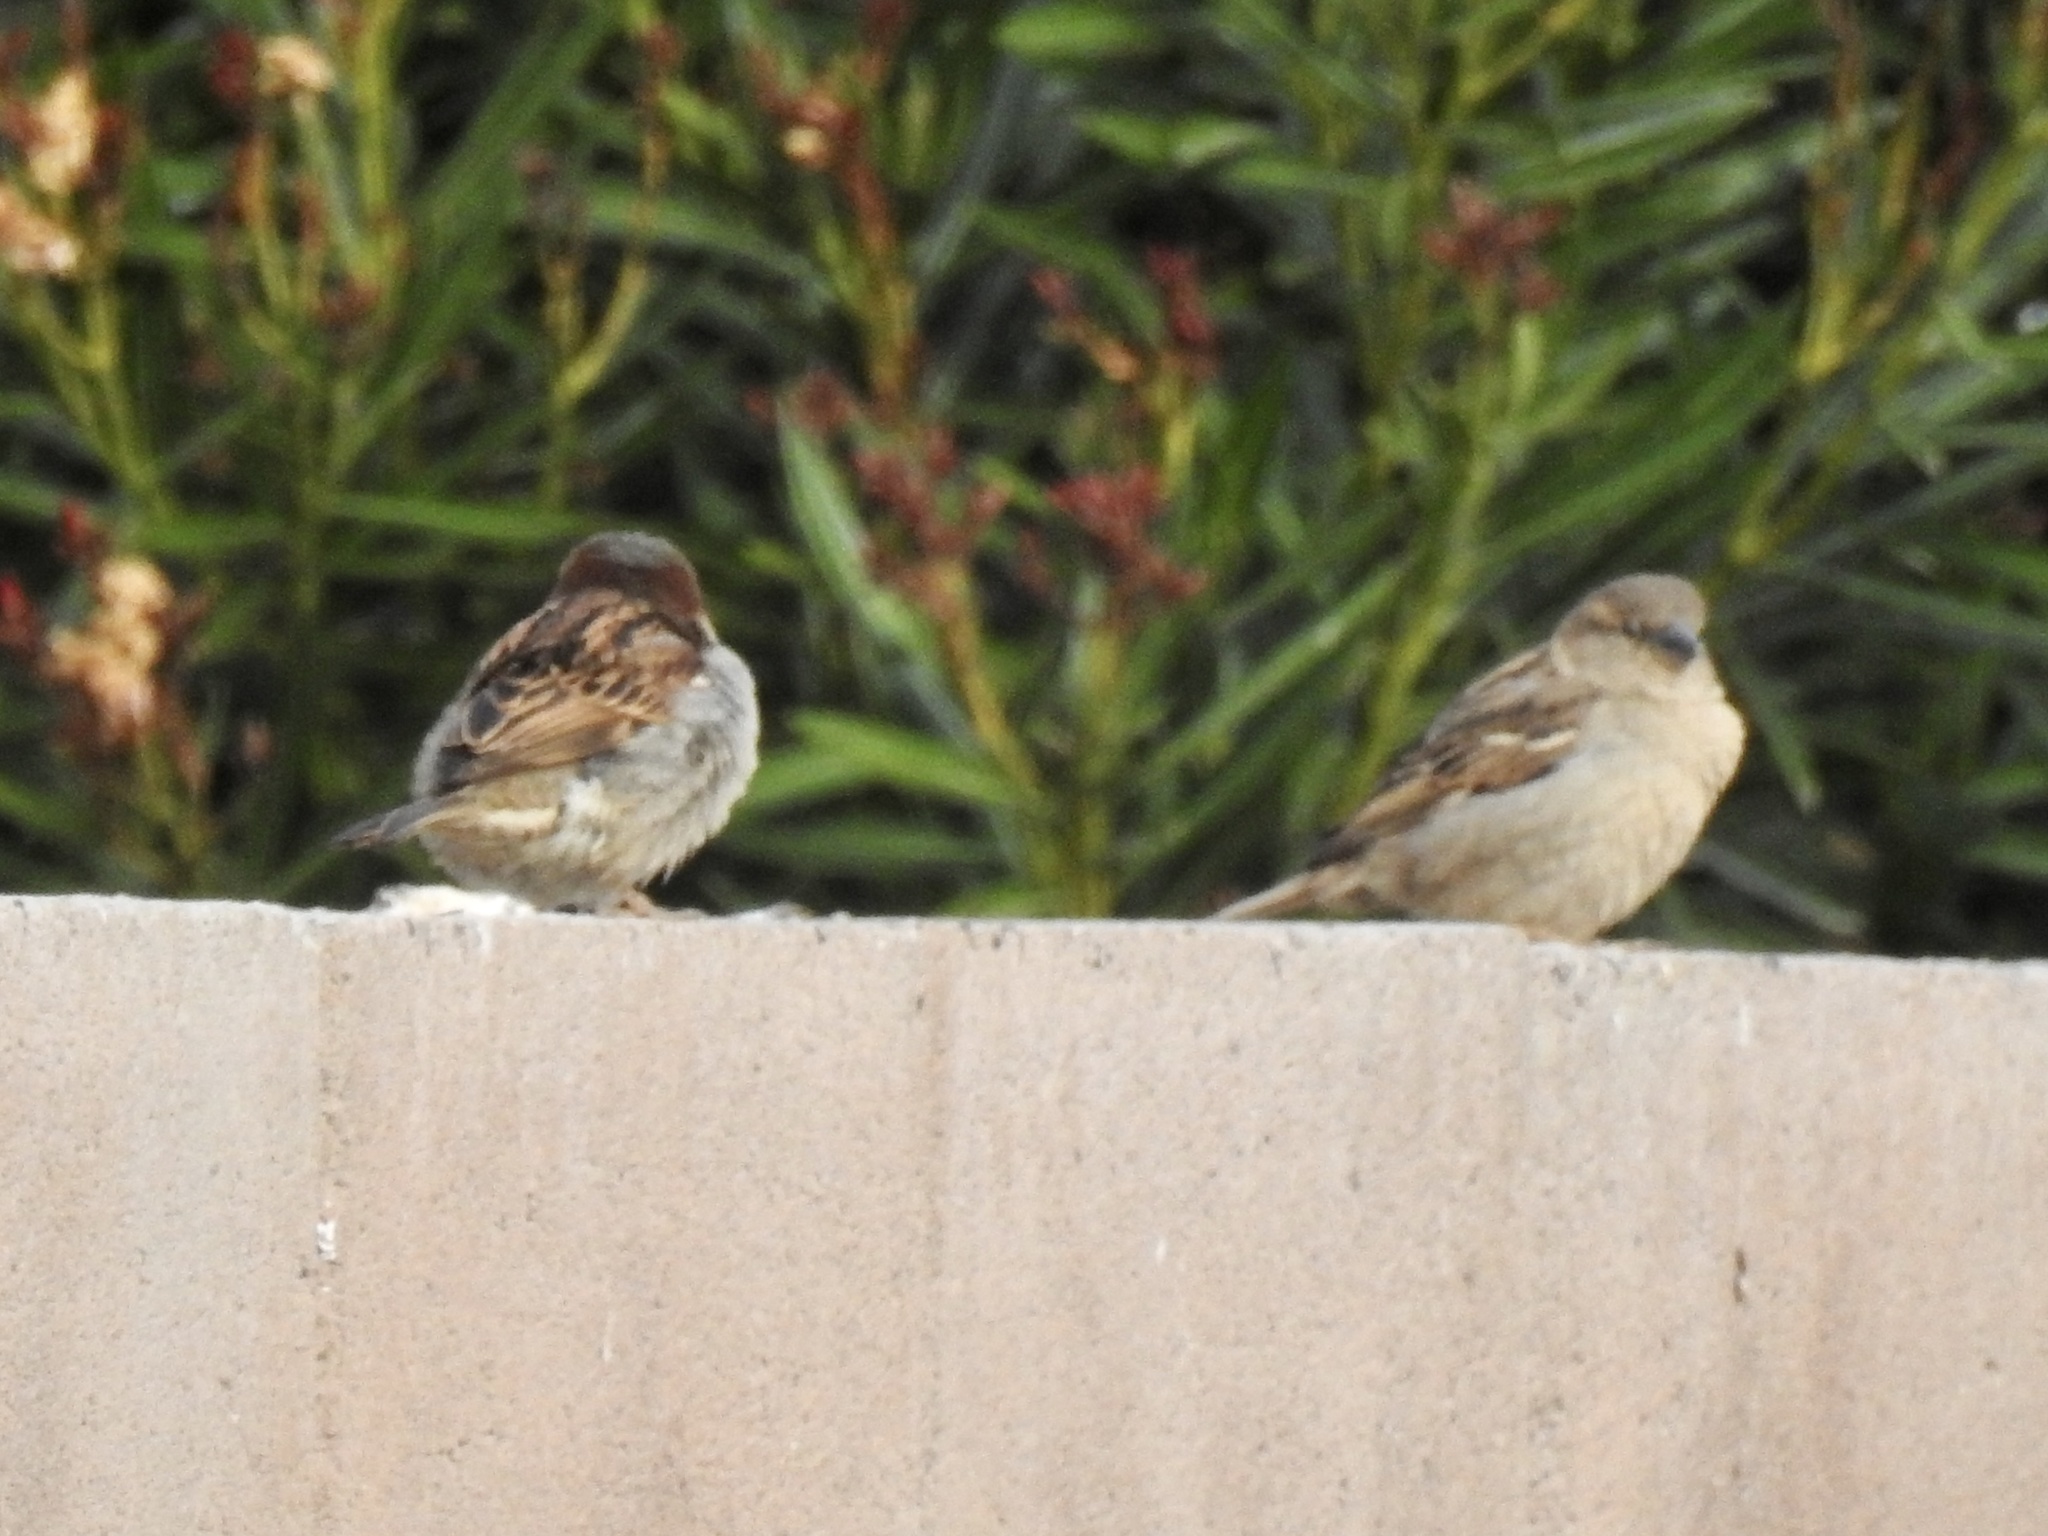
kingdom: Animalia
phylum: Chordata
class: Aves
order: Passeriformes
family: Passeridae
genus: Passer
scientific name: Passer domesticus
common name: House sparrow
